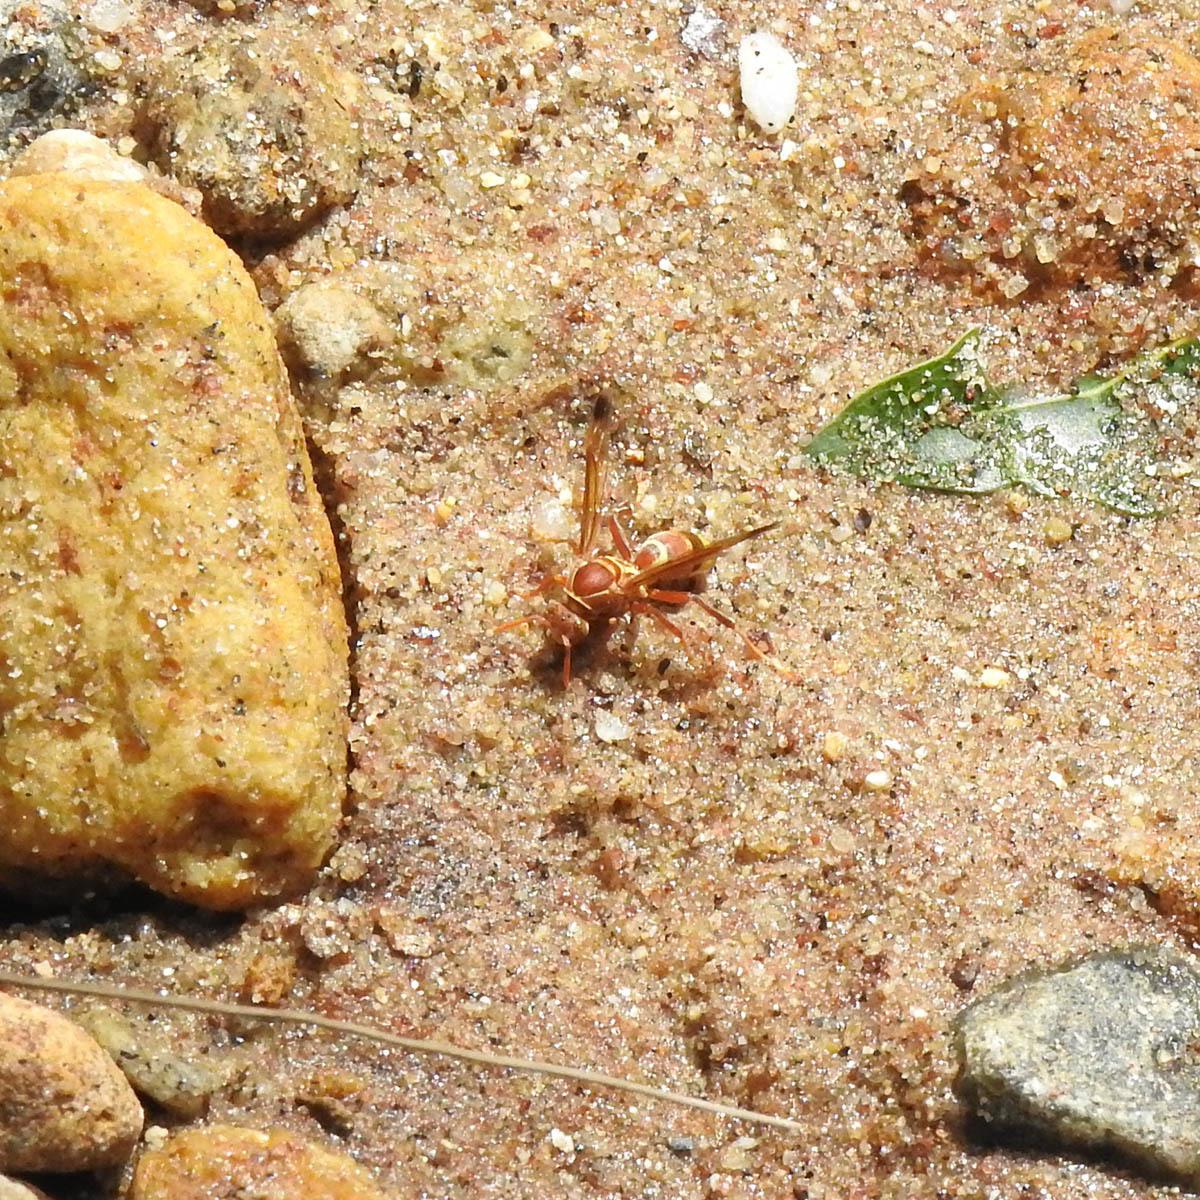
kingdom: Animalia
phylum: Arthropoda
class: Insecta
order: Hymenoptera
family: Eumenidae
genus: Polistes
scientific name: Polistes stigma
